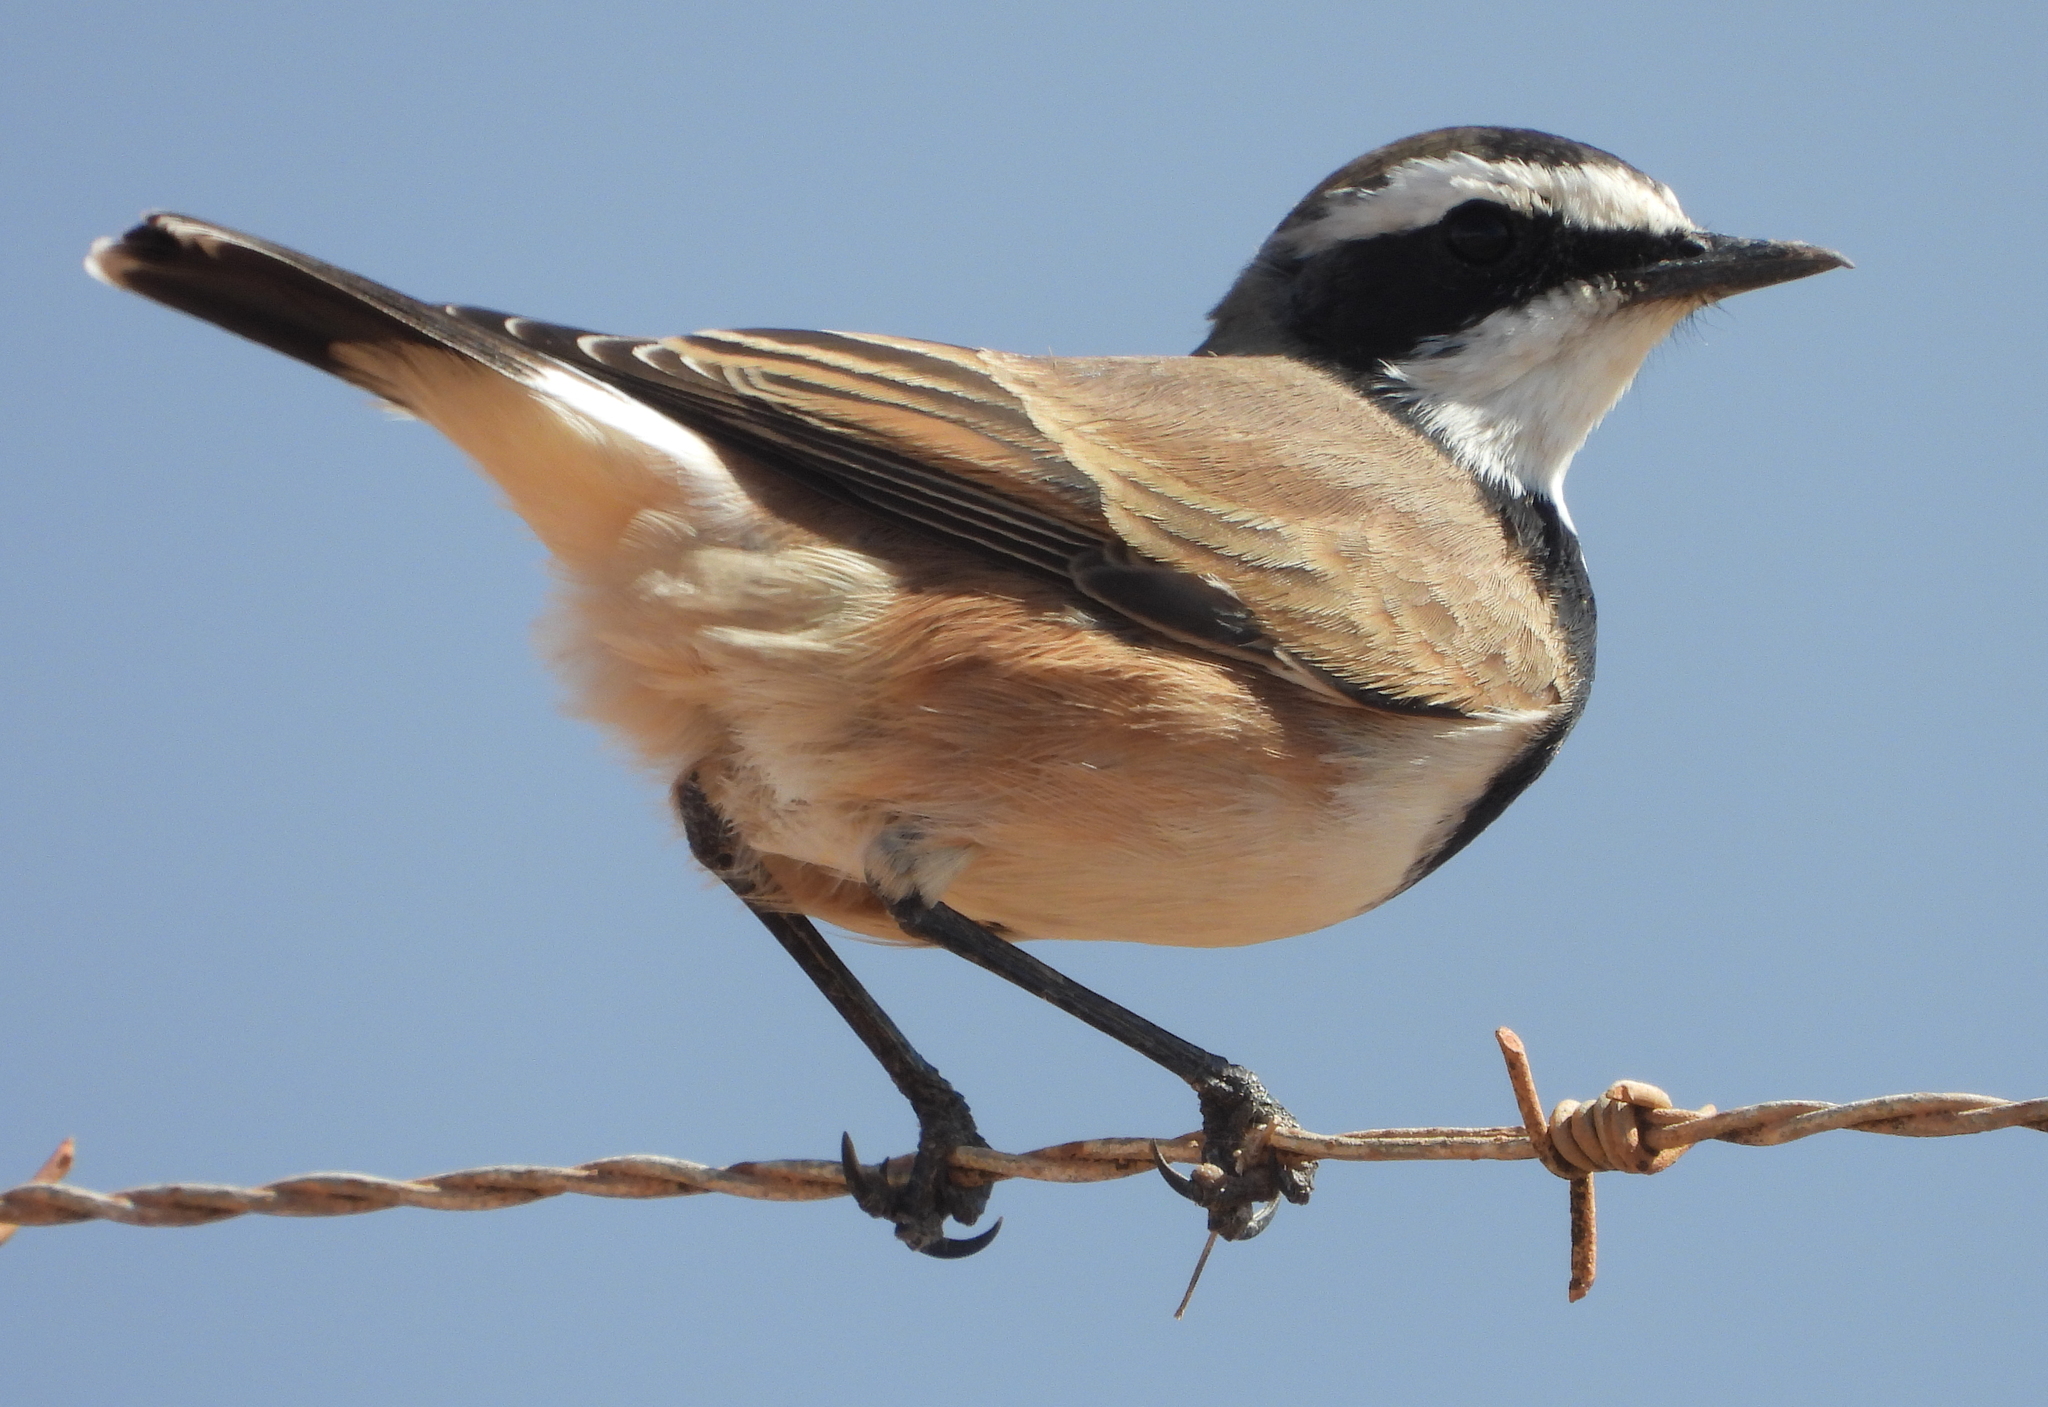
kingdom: Animalia
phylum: Chordata
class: Aves
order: Passeriformes
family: Muscicapidae
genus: Oenanthe
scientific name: Oenanthe pileata
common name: Capped wheatear
